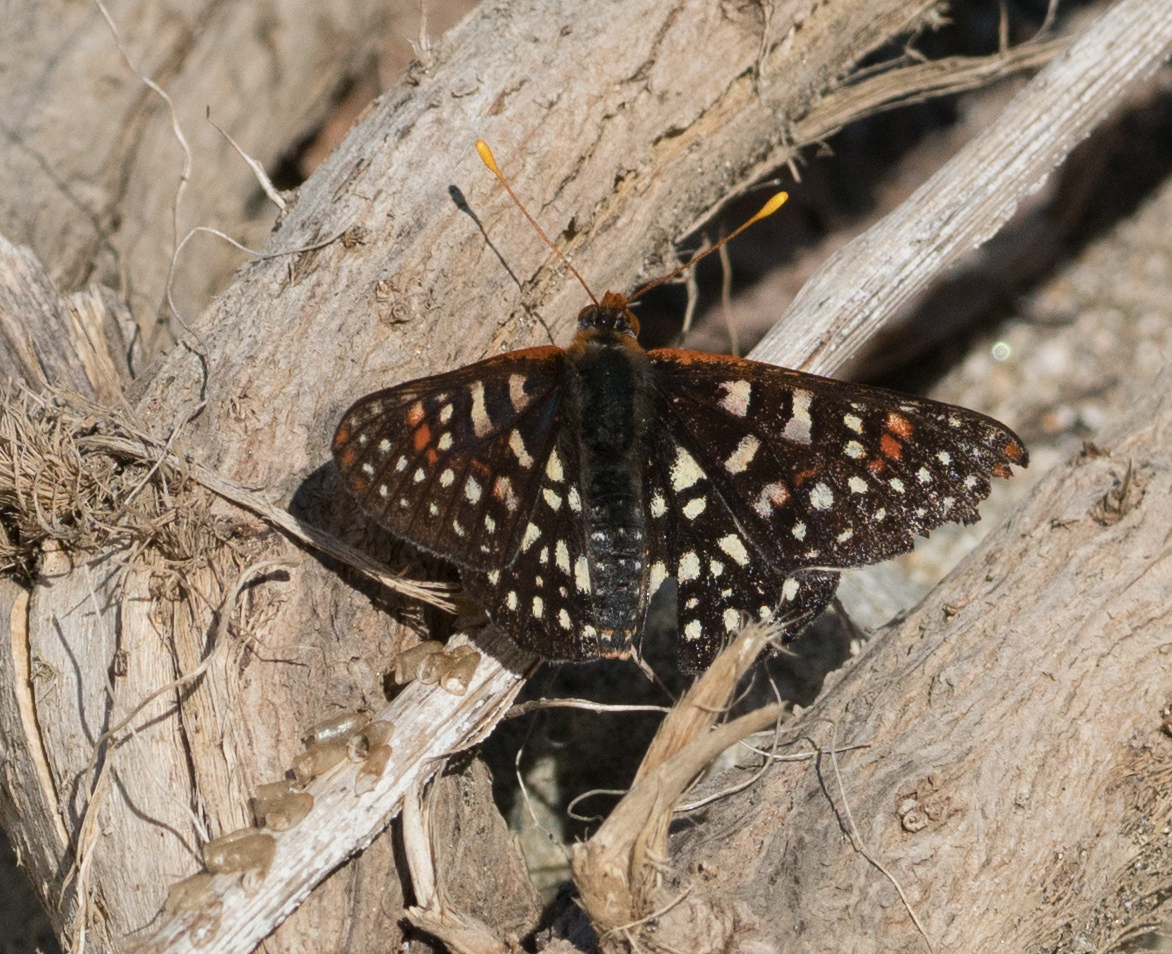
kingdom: Animalia
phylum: Arthropoda
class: Insecta
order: Lepidoptera
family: Nymphalidae
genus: Occidryas
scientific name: Occidryas chalcedona
